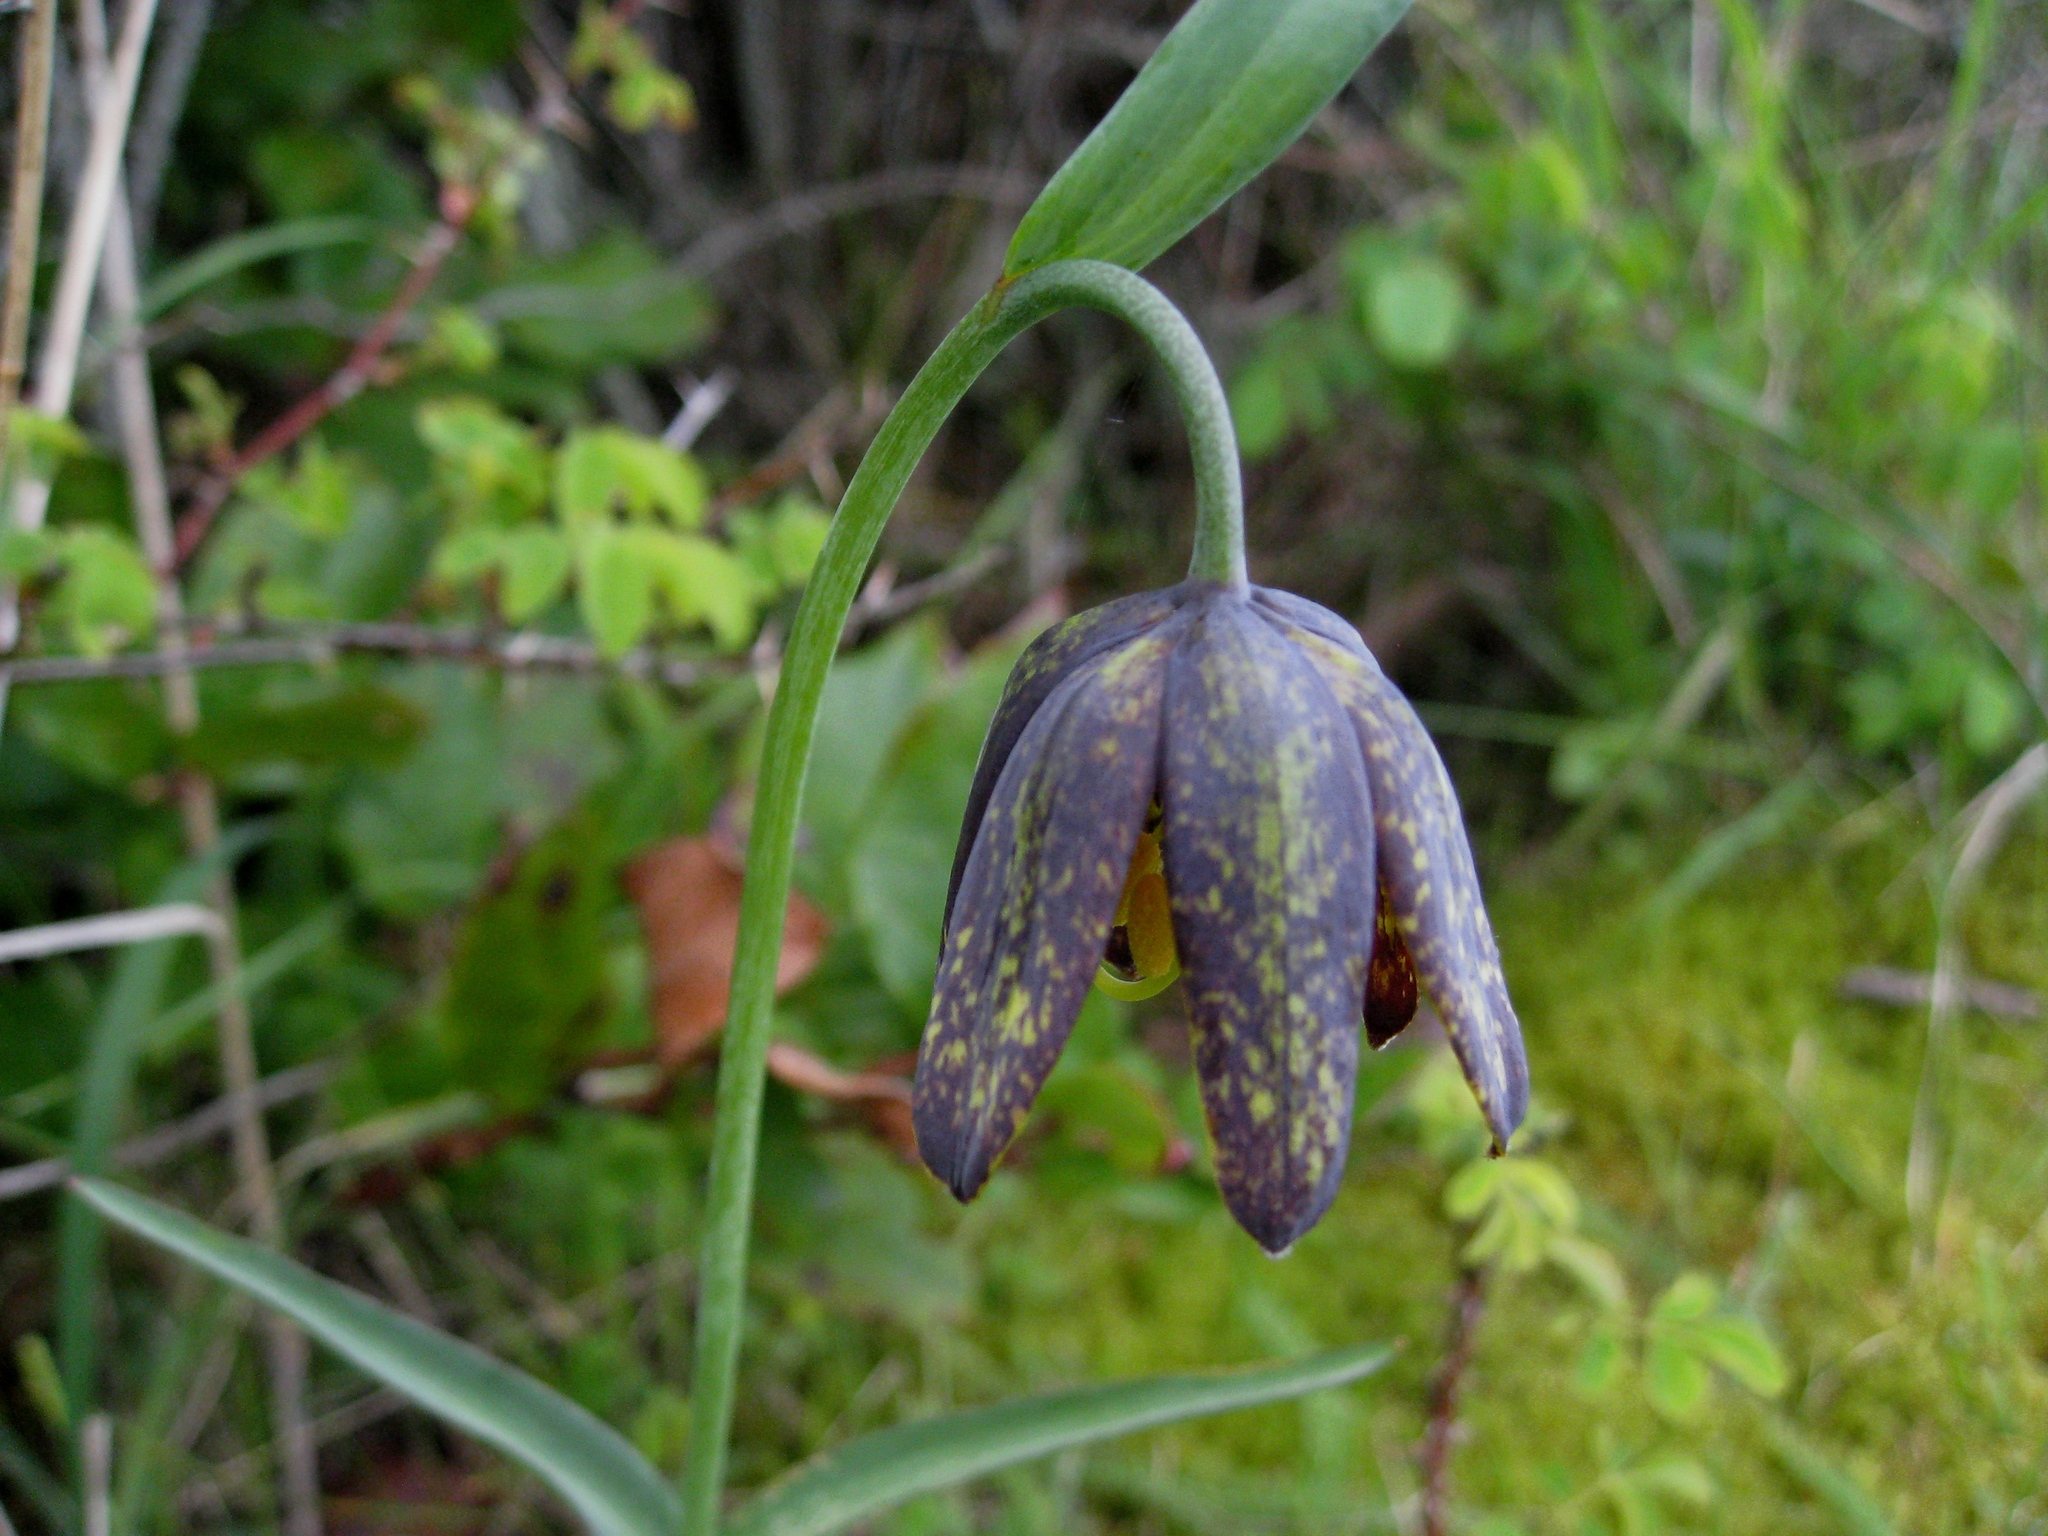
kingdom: Plantae
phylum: Tracheophyta
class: Liliopsida
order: Liliales
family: Liliaceae
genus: Fritillaria
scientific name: Fritillaria affinis
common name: Ojai fritillary
